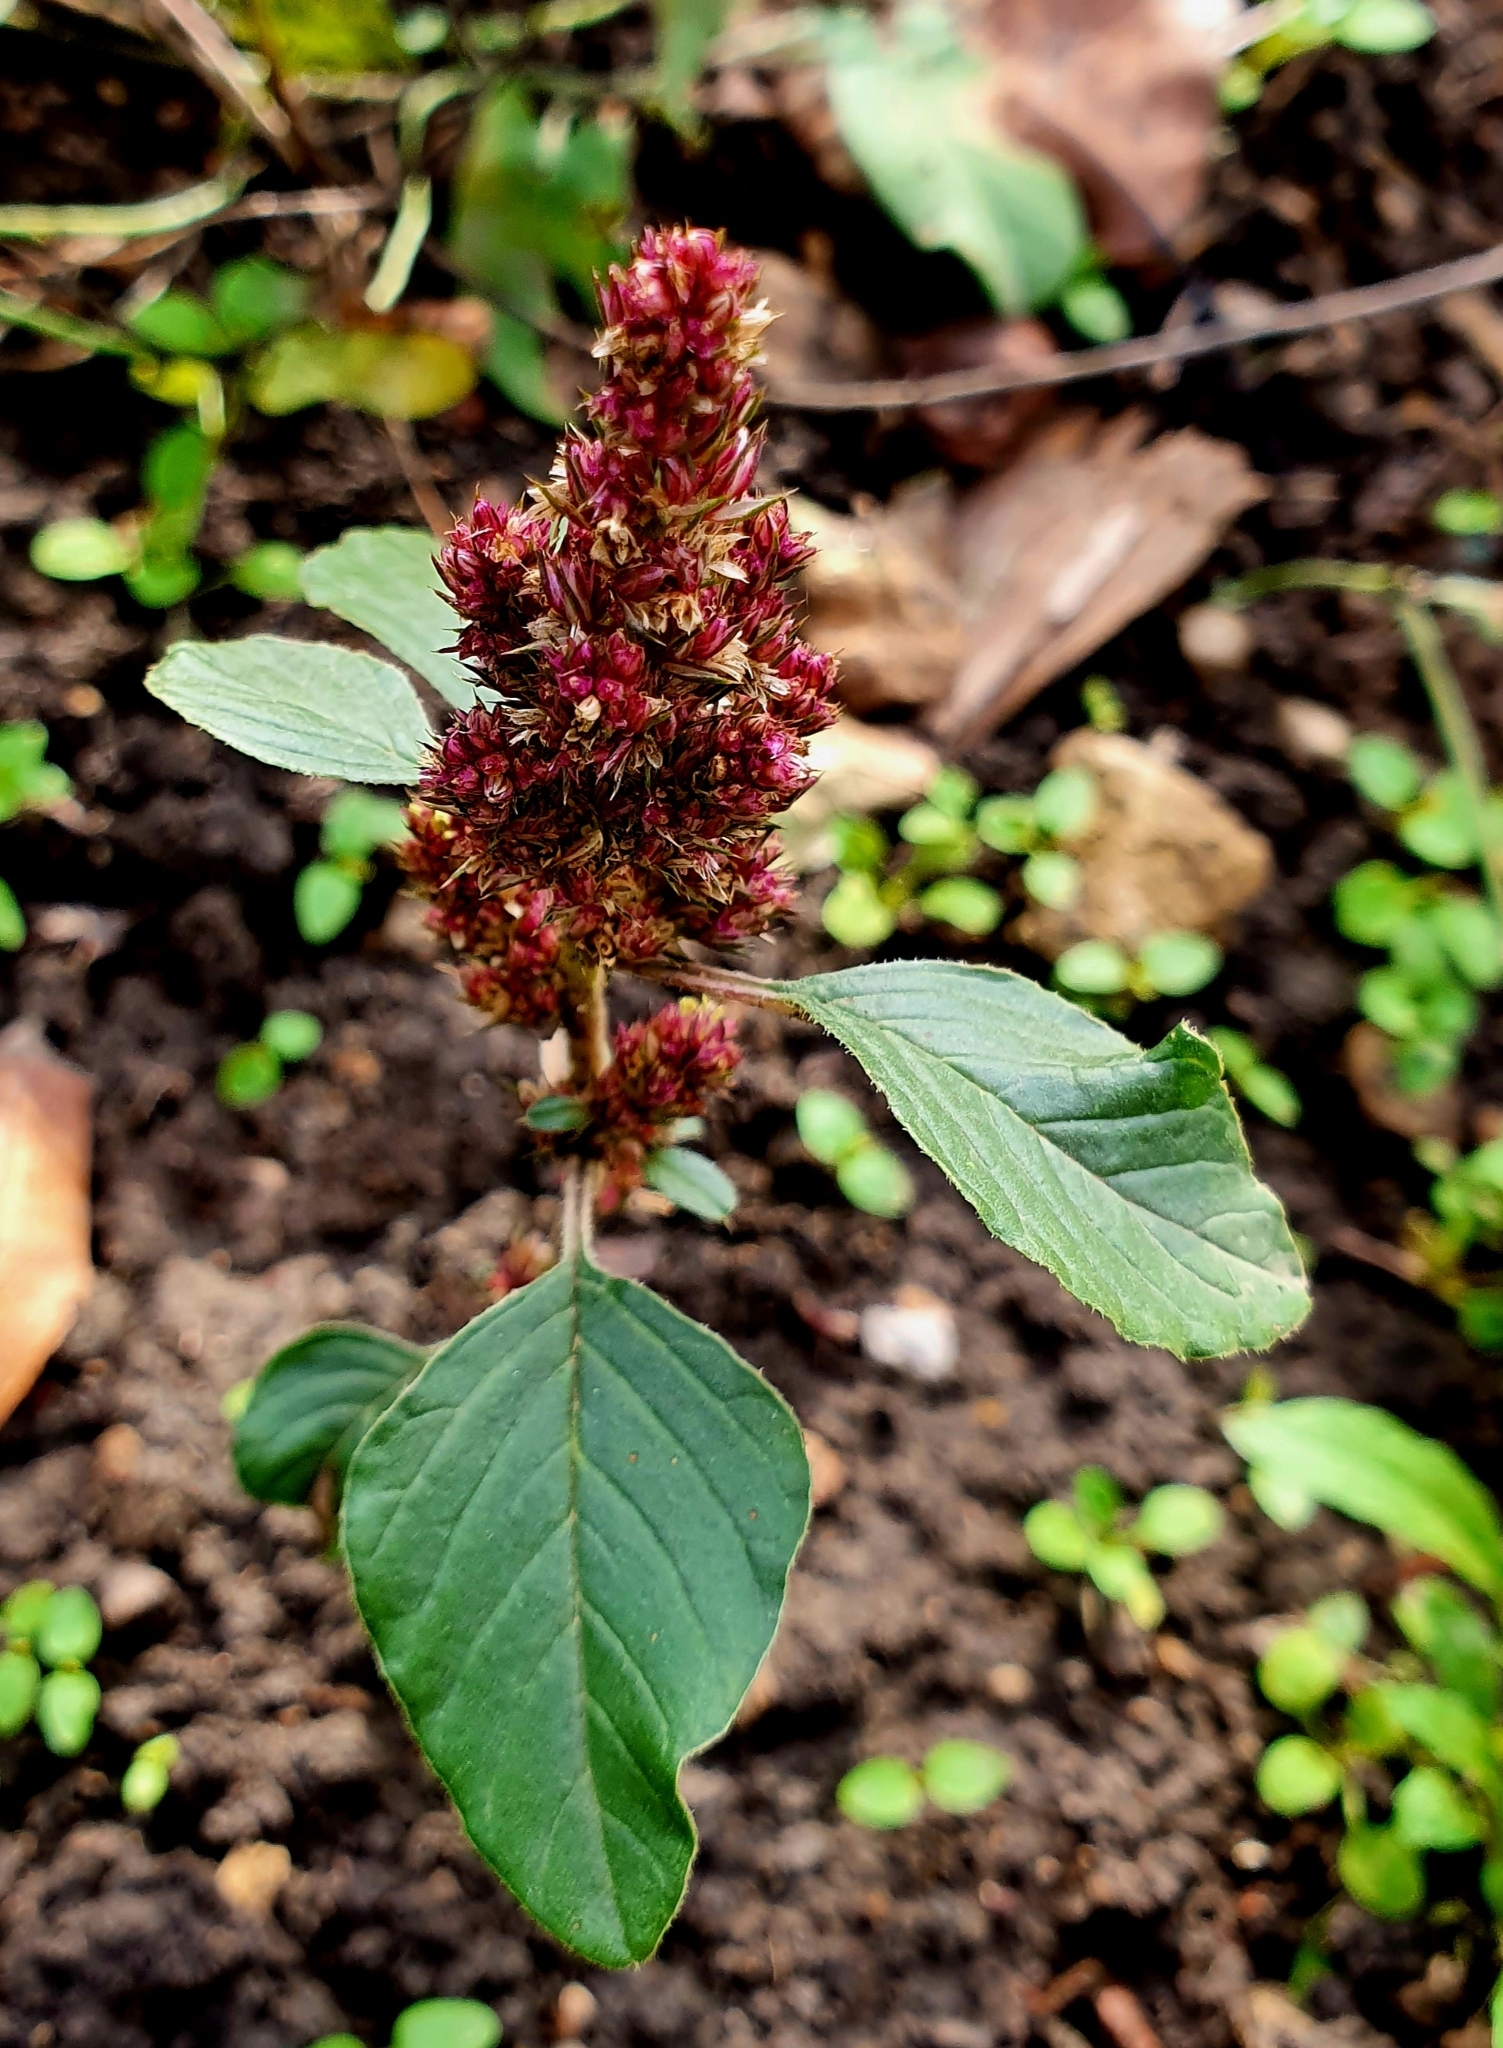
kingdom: Plantae
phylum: Tracheophyta
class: Magnoliopsida
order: Caryophyllales
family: Amaranthaceae
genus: Amaranthus
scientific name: Amaranthus retroflexus
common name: Redroot amaranth
